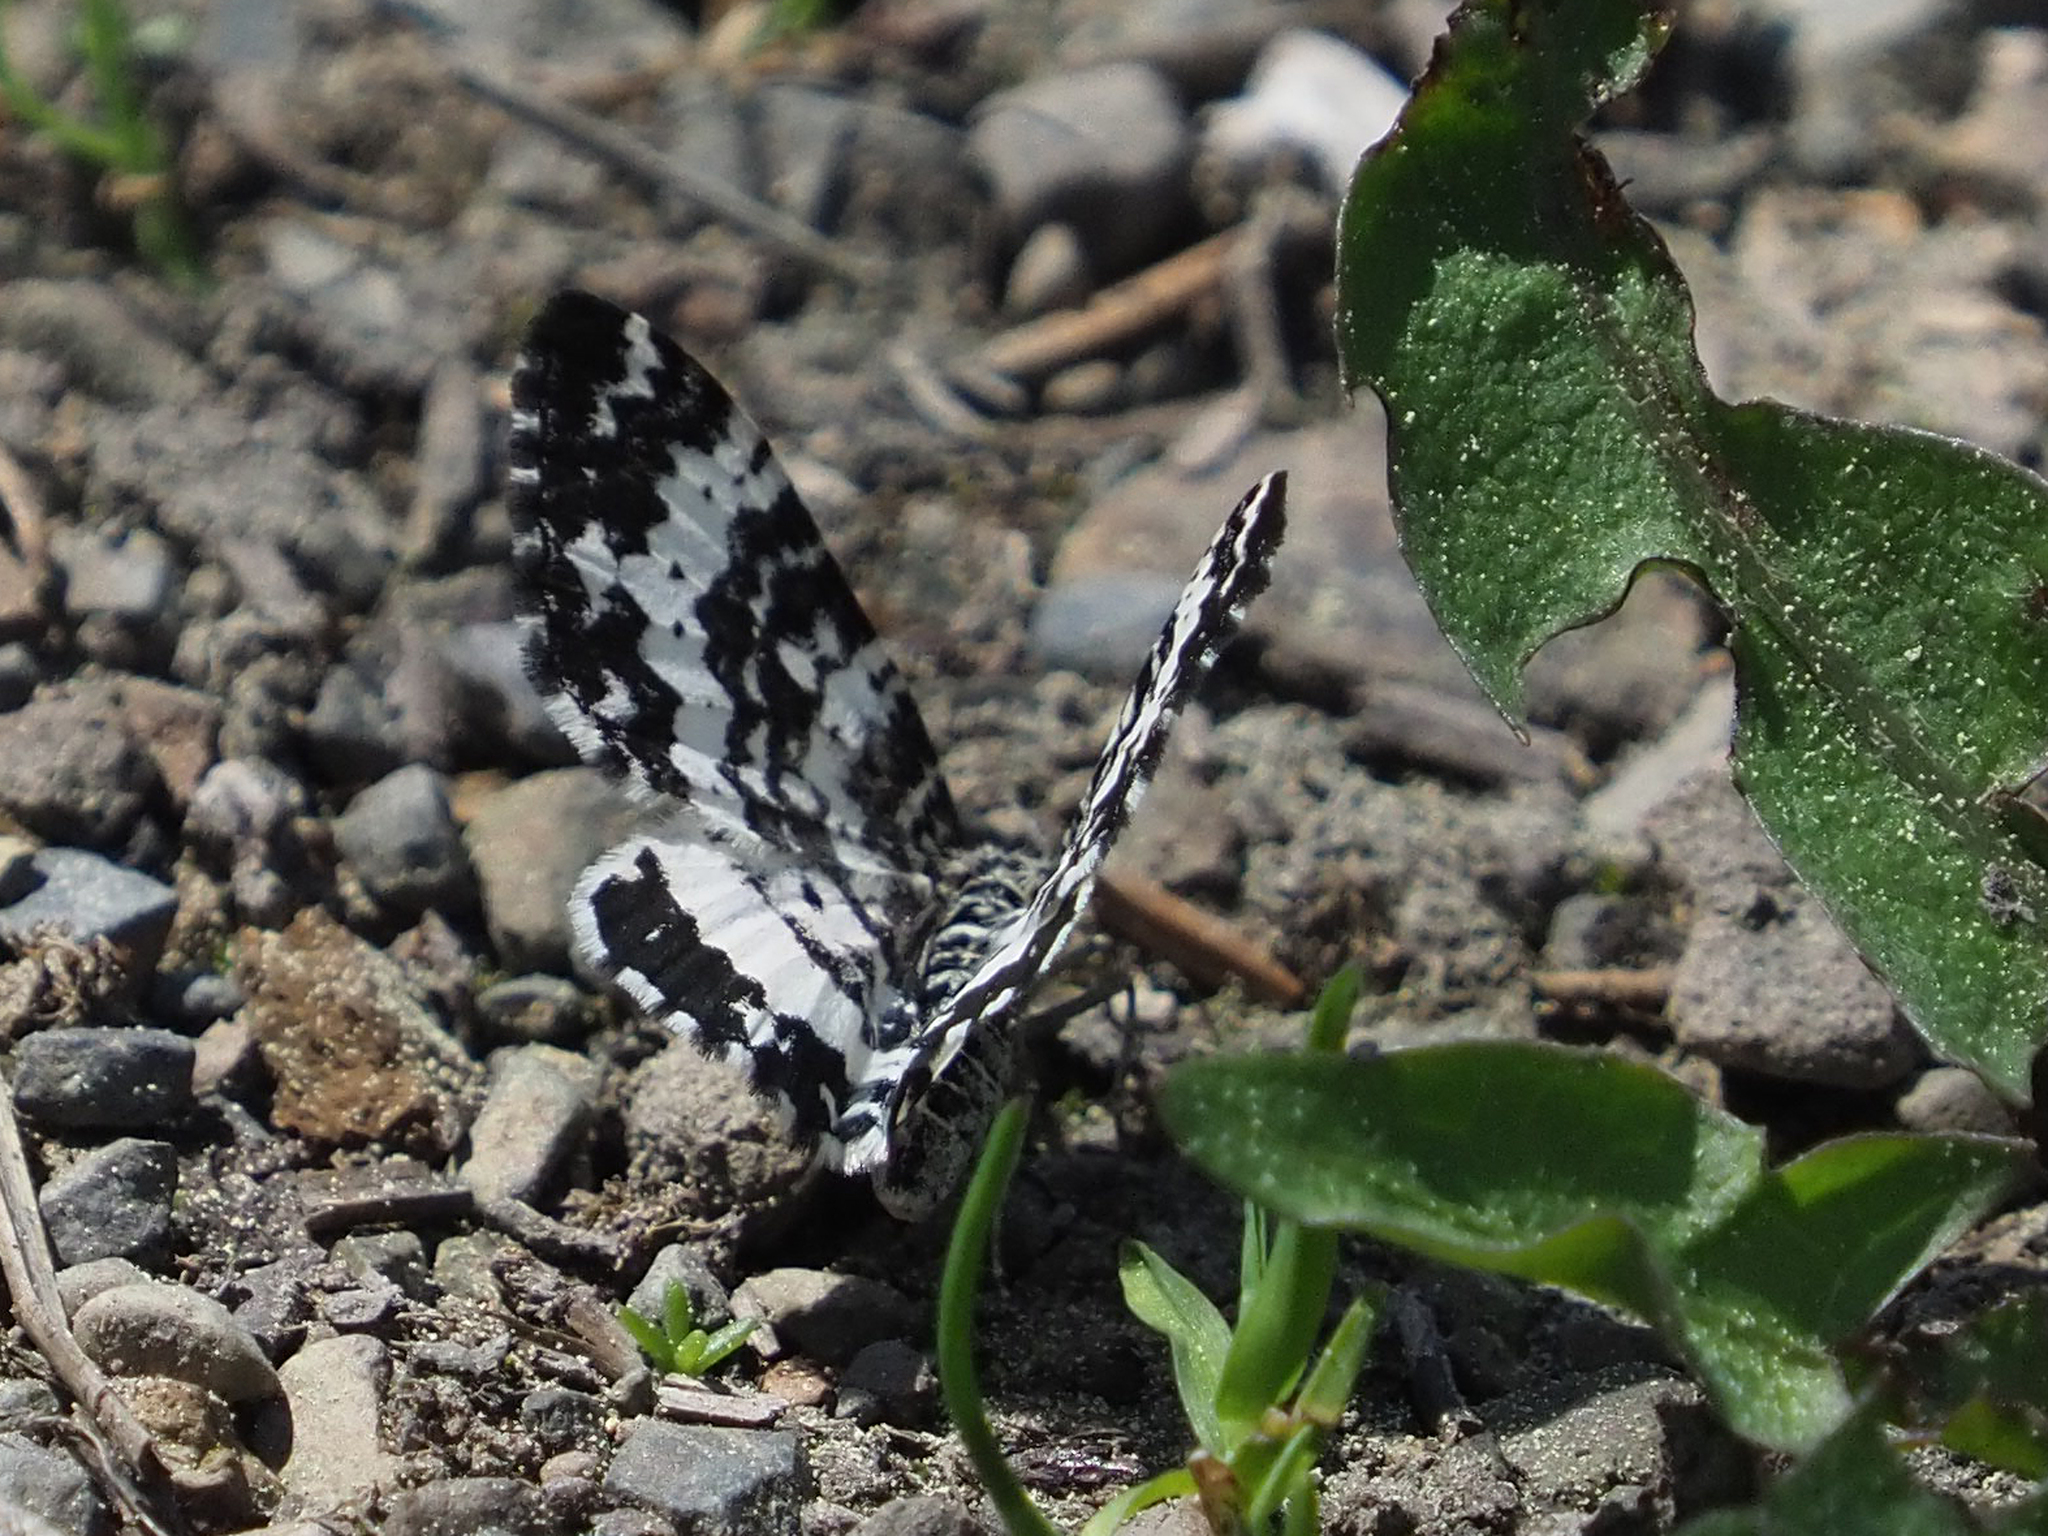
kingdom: Animalia
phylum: Arthropoda
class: Insecta
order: Lepidoptera
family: Geometridae
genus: Rheumaptera
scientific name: Rheumaptera subhastata
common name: White-banded black moth
